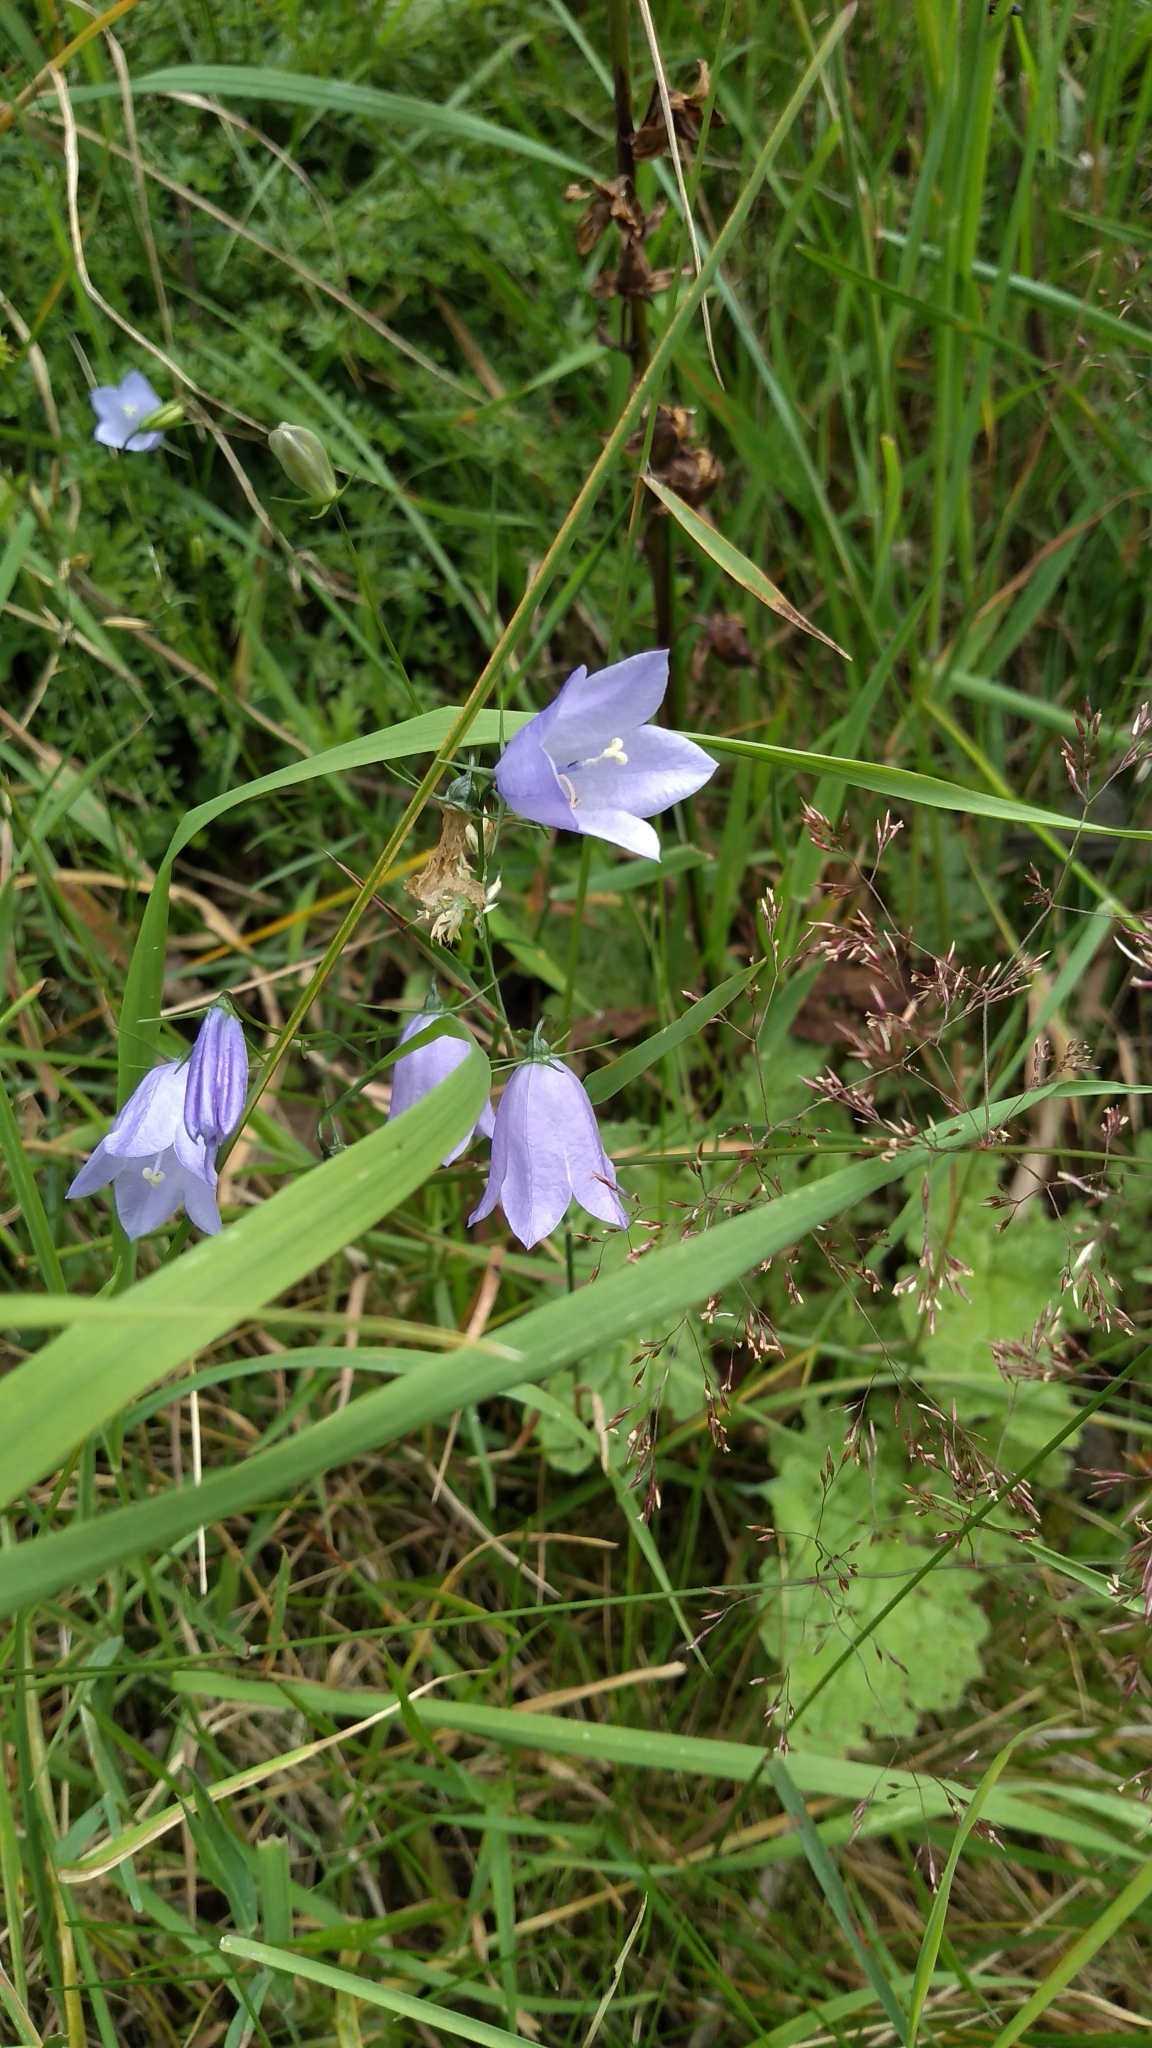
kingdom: Plantae
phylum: Tracheophyta
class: Magnoliopsida
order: Asterales
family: Campanulaceae
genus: Campanula
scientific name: Campanula rotundifolia
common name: Harebell
